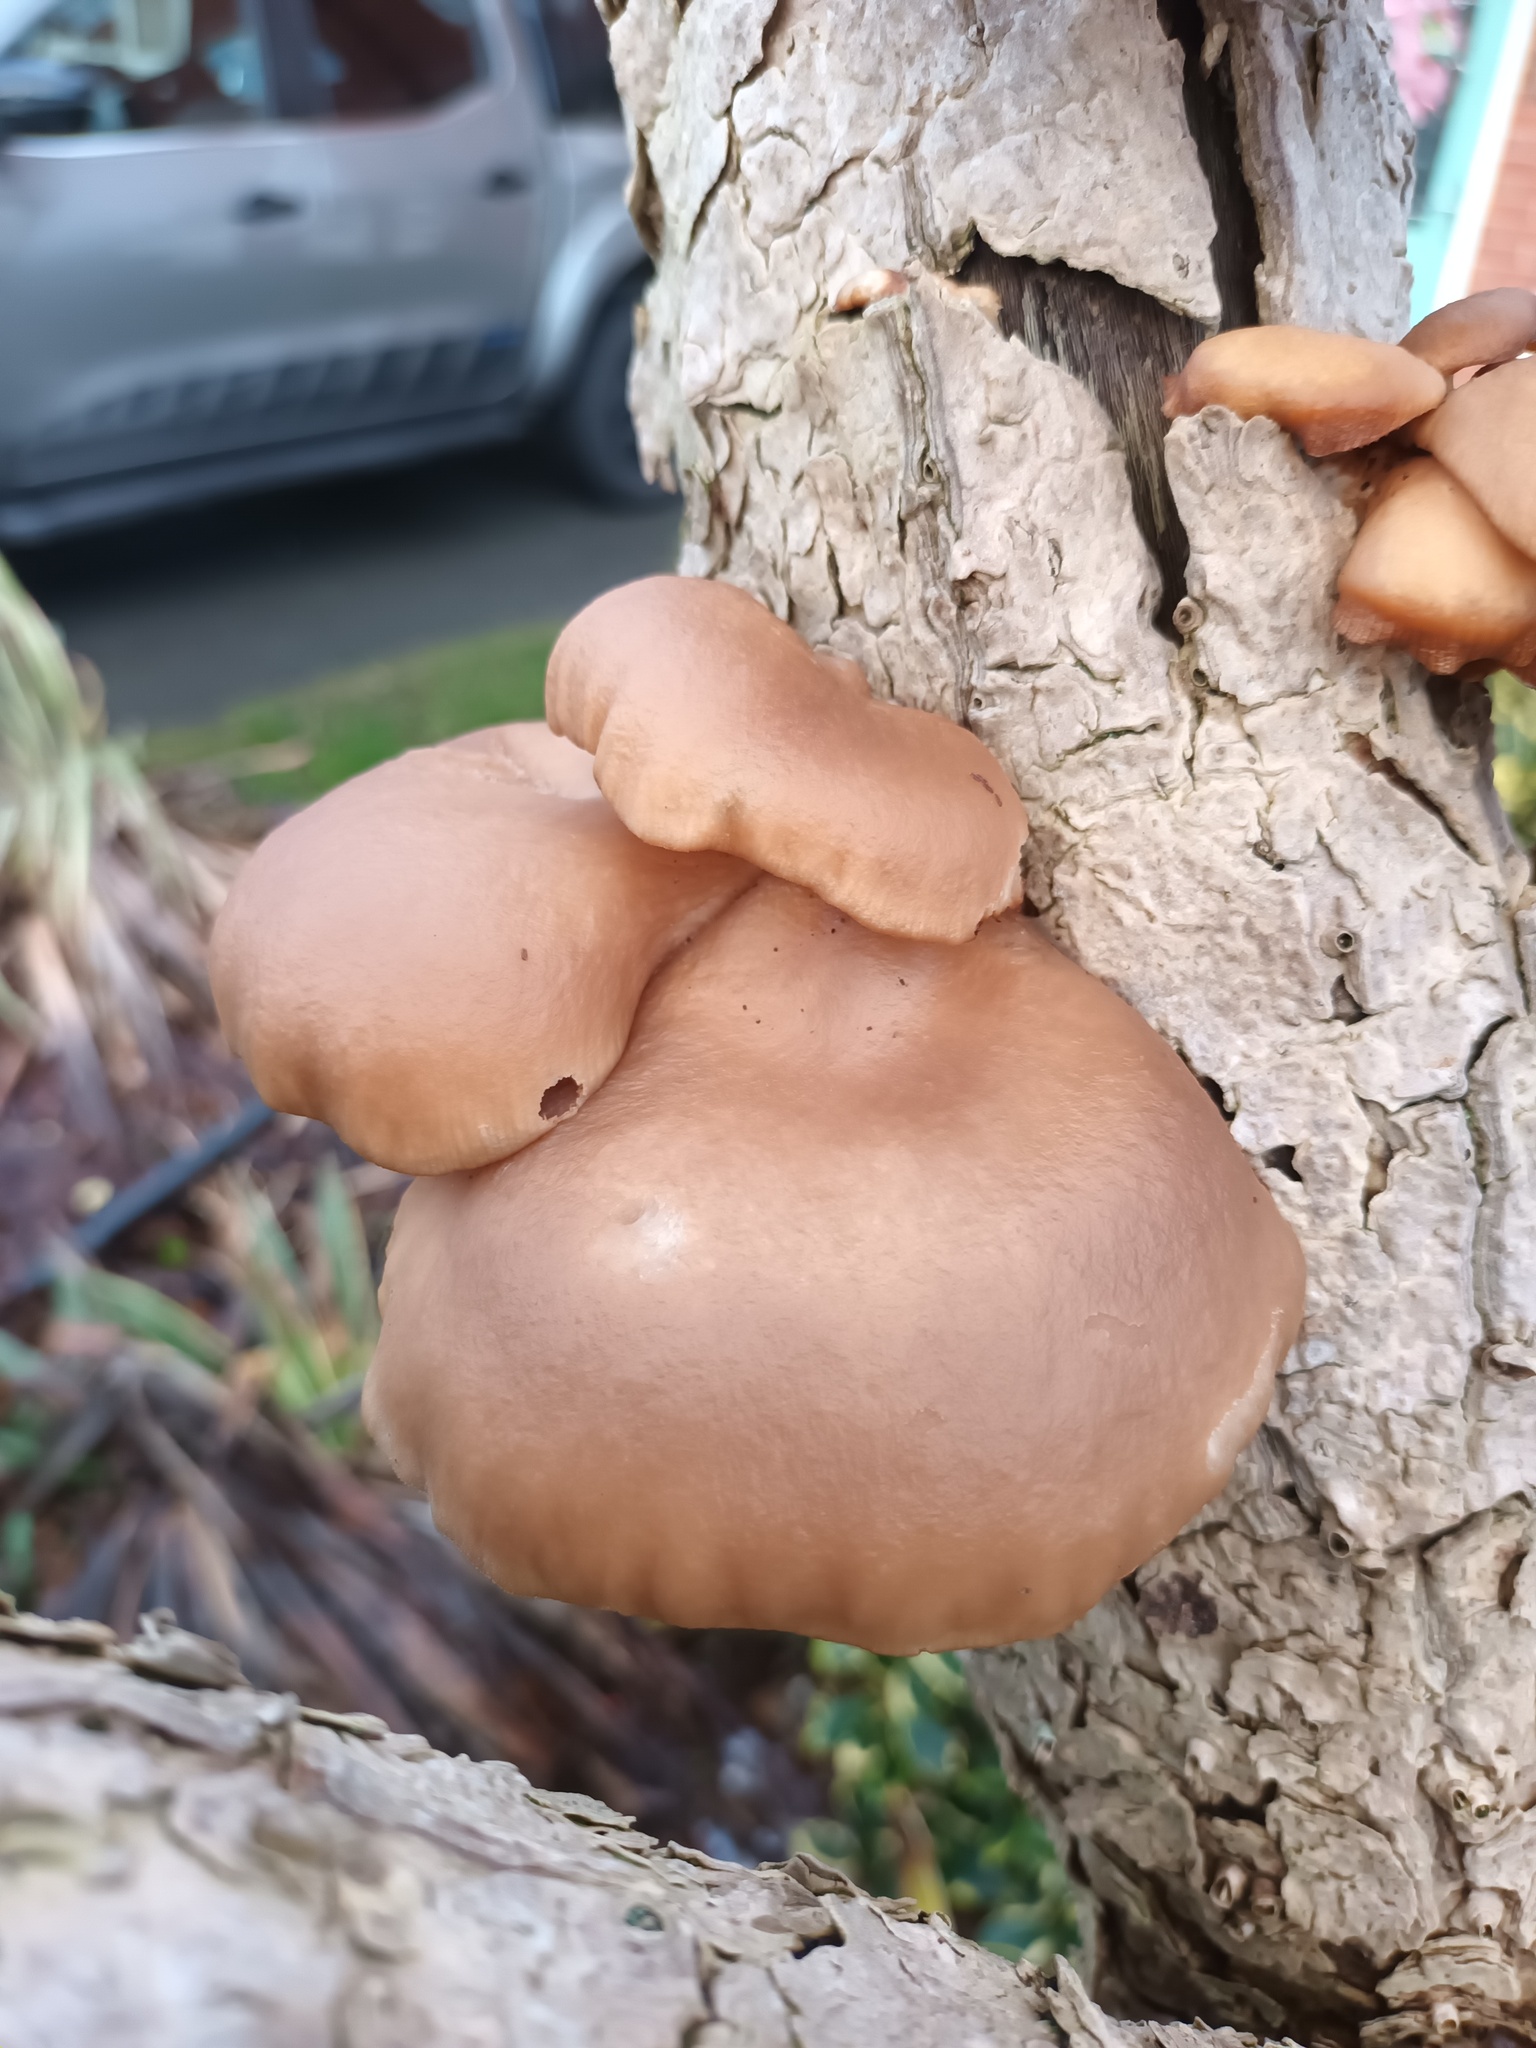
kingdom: Fungi
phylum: Basidiomycota
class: Agaricomycetes
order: Agaricales
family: Pleurotaceae
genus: Pleurotus
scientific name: Pleurotus ostreatus
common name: Oyster mushroom
